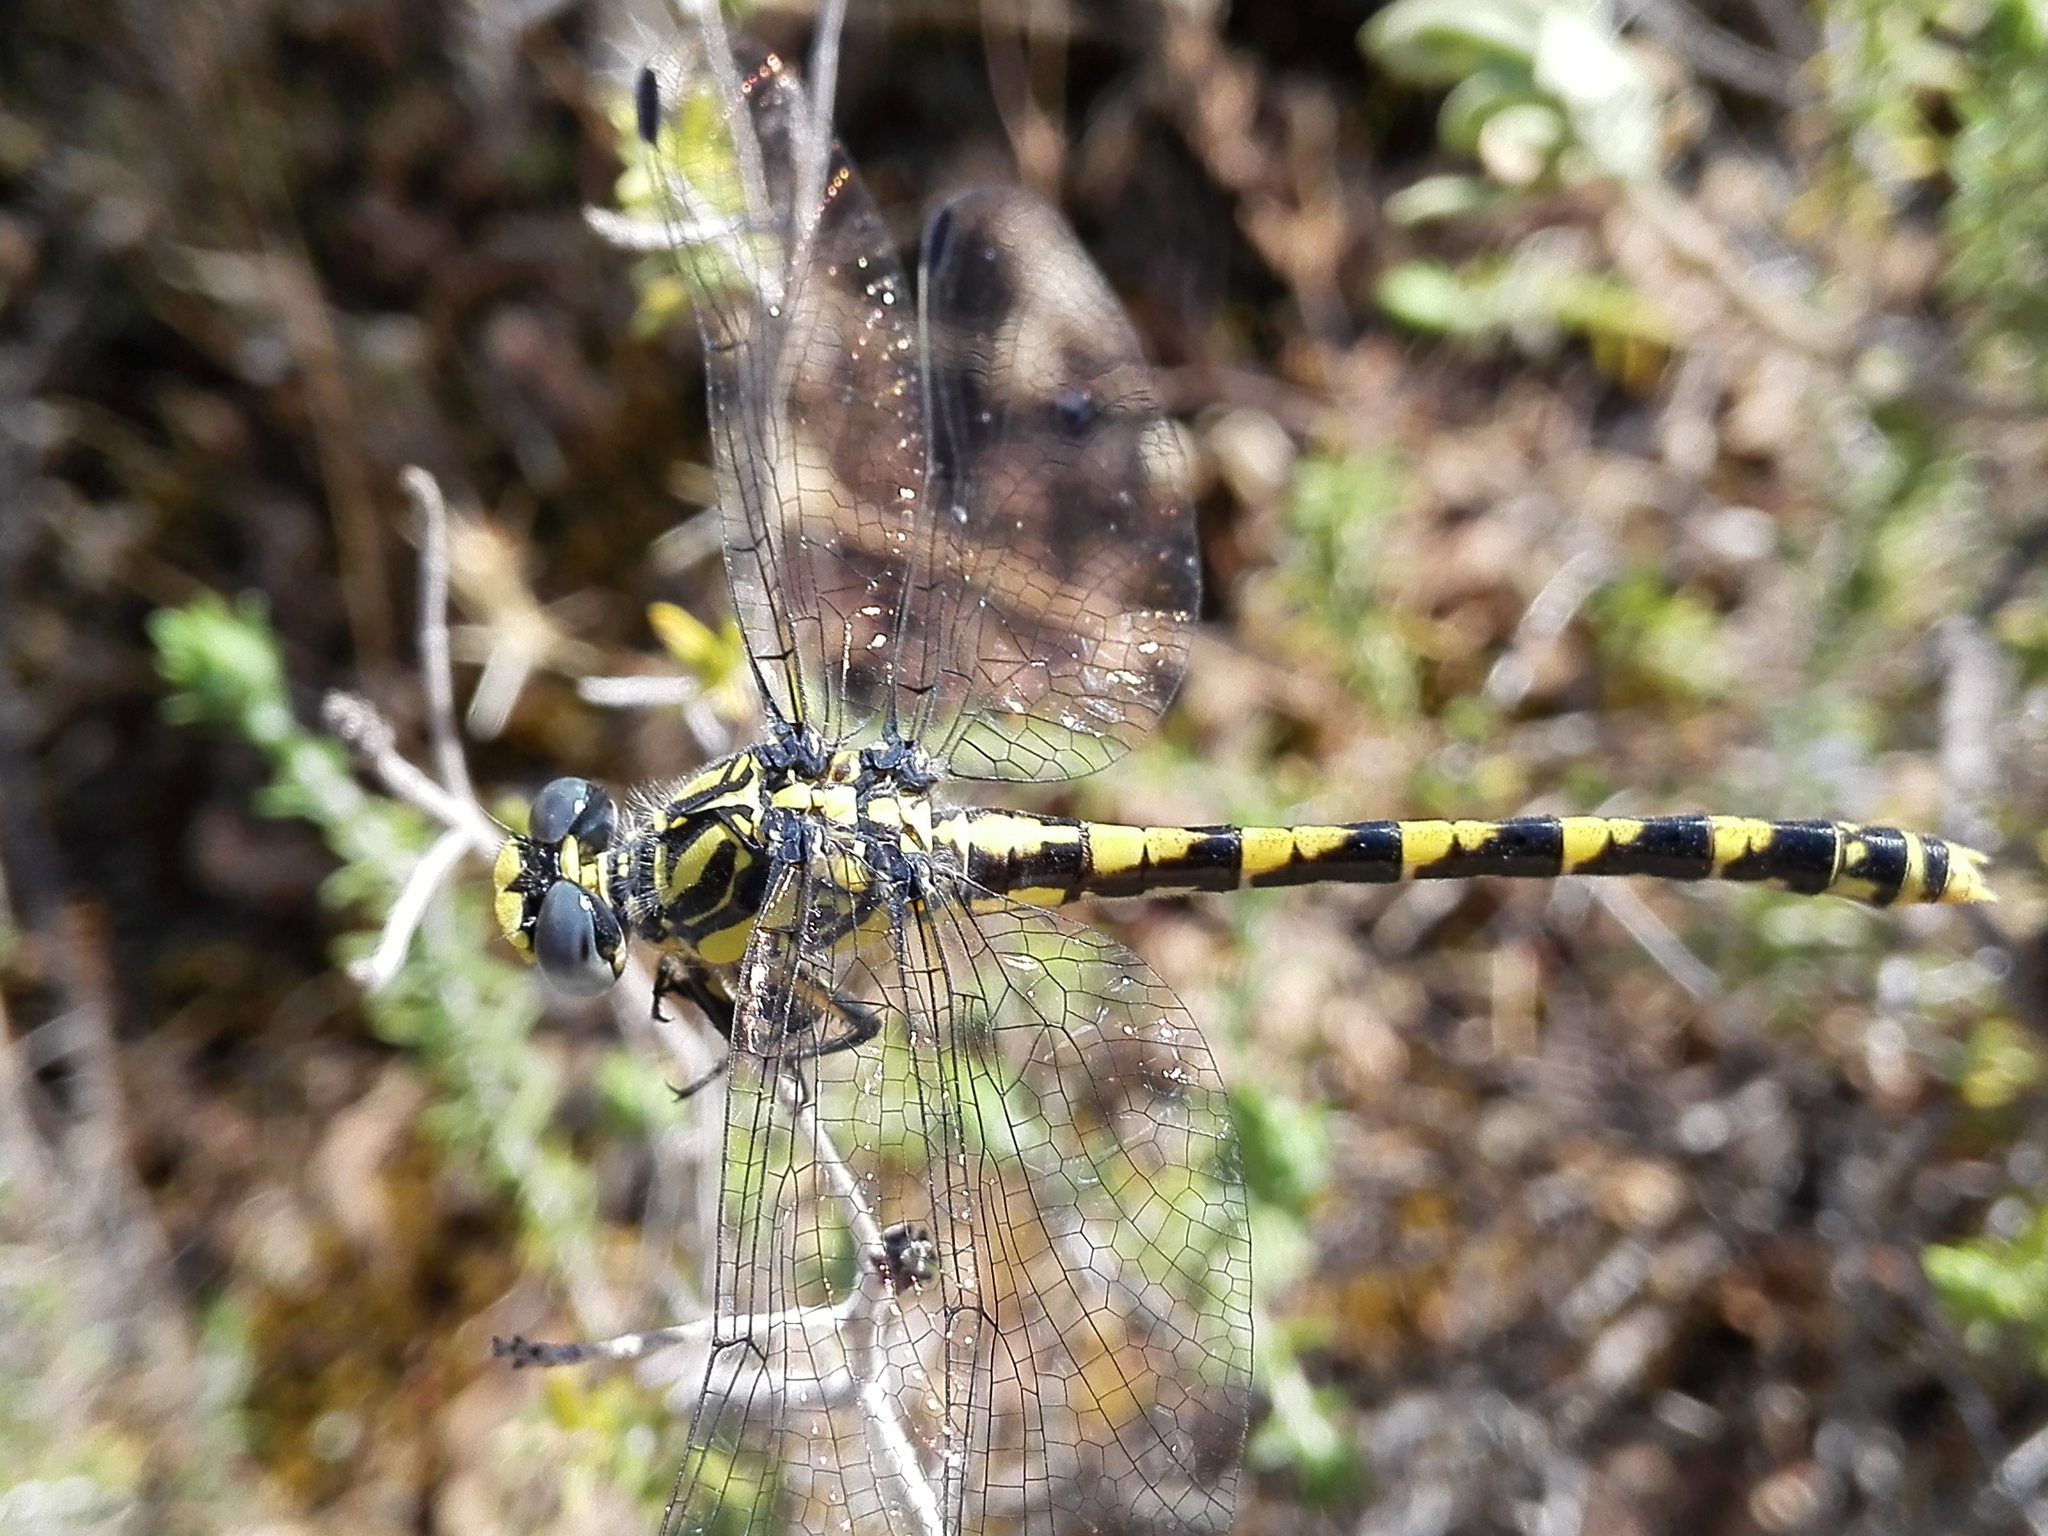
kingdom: Animalia
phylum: Arthropoda
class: Insecta
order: Odonata
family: Gomphidae
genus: Onychogomphus
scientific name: Onychogomphus uncatus
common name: Large pincertail
